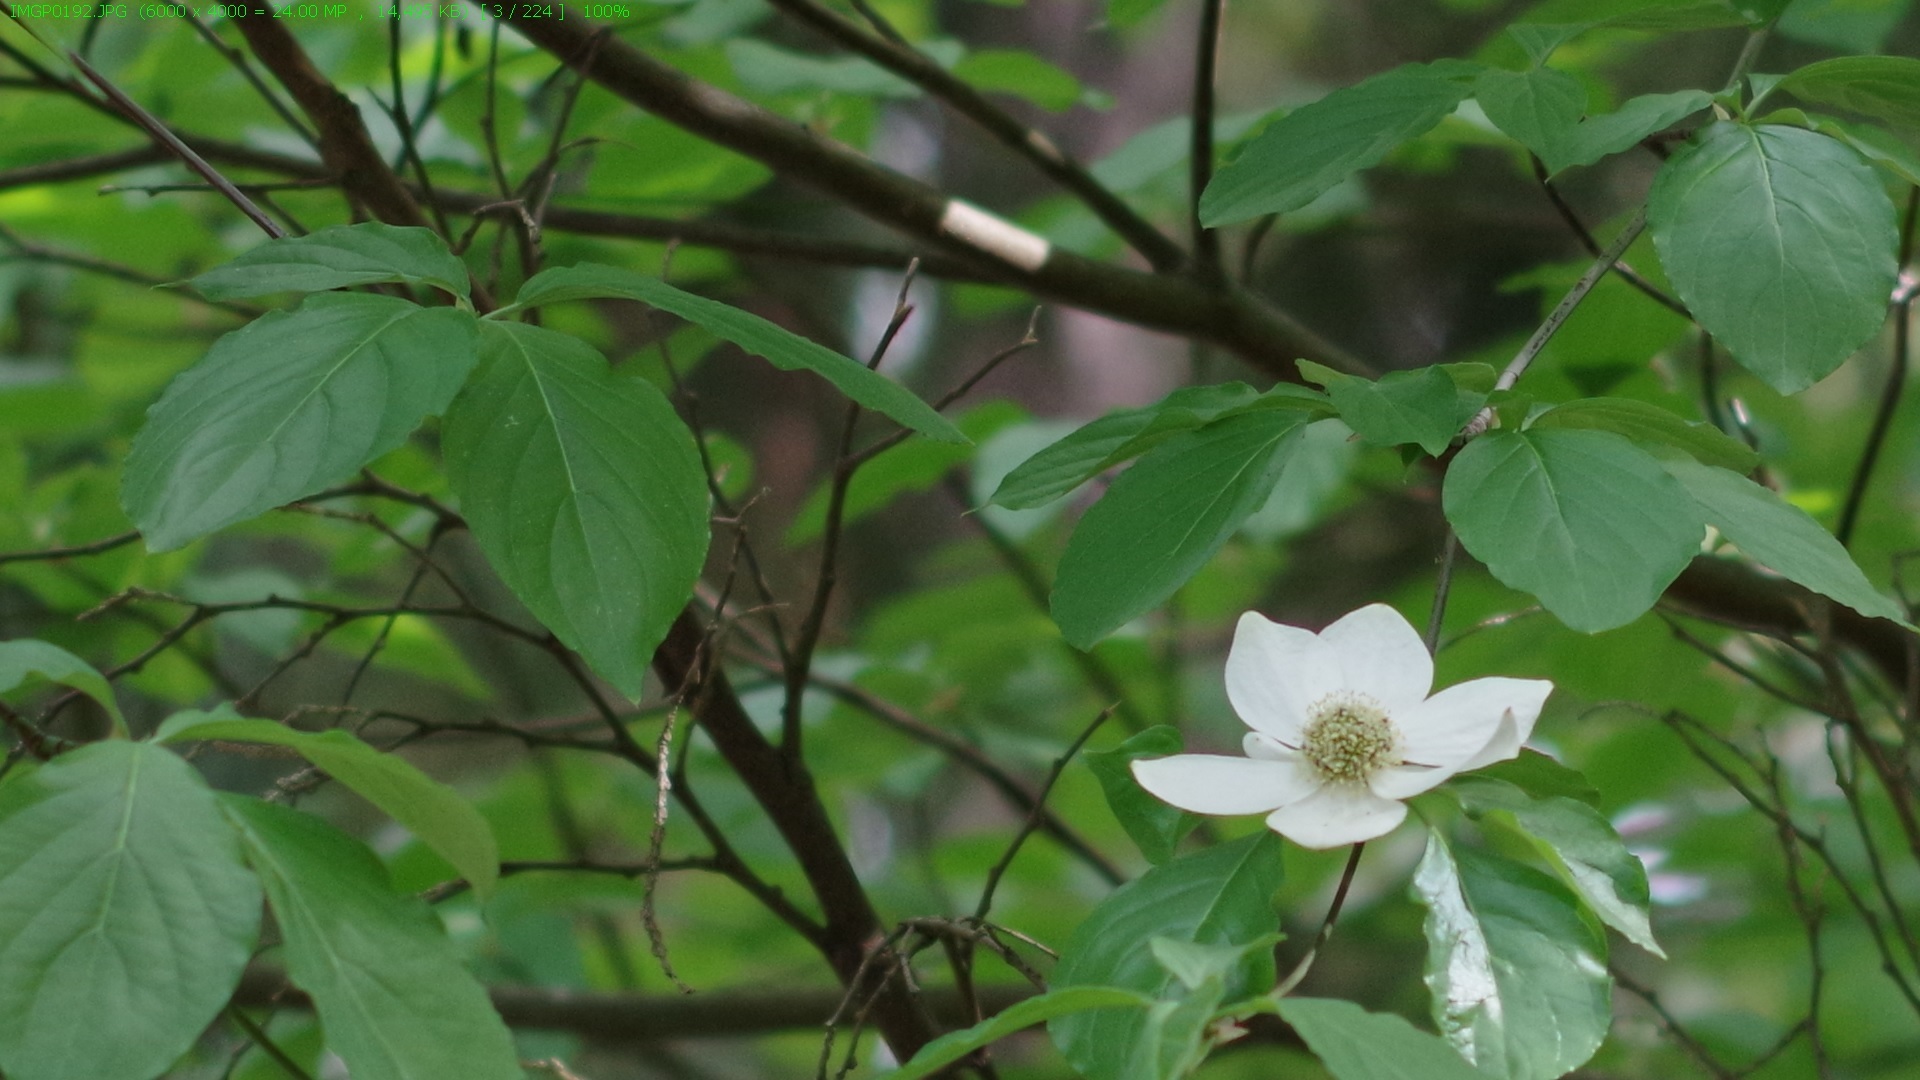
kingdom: Plantae
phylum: Tracheophyta
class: Magnoliopsida
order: Cornales
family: Cornaceae
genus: Cornus
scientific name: Cornus nuttallii
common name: Pacific dogwood
